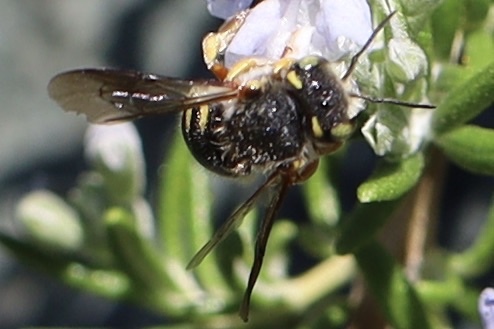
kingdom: Animalia
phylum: Arthropoda
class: Insecta
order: Hymenoptera
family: Megachilidae
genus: Anthidium
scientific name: Anthidium oblongatum
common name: Oblong wool carder bee
